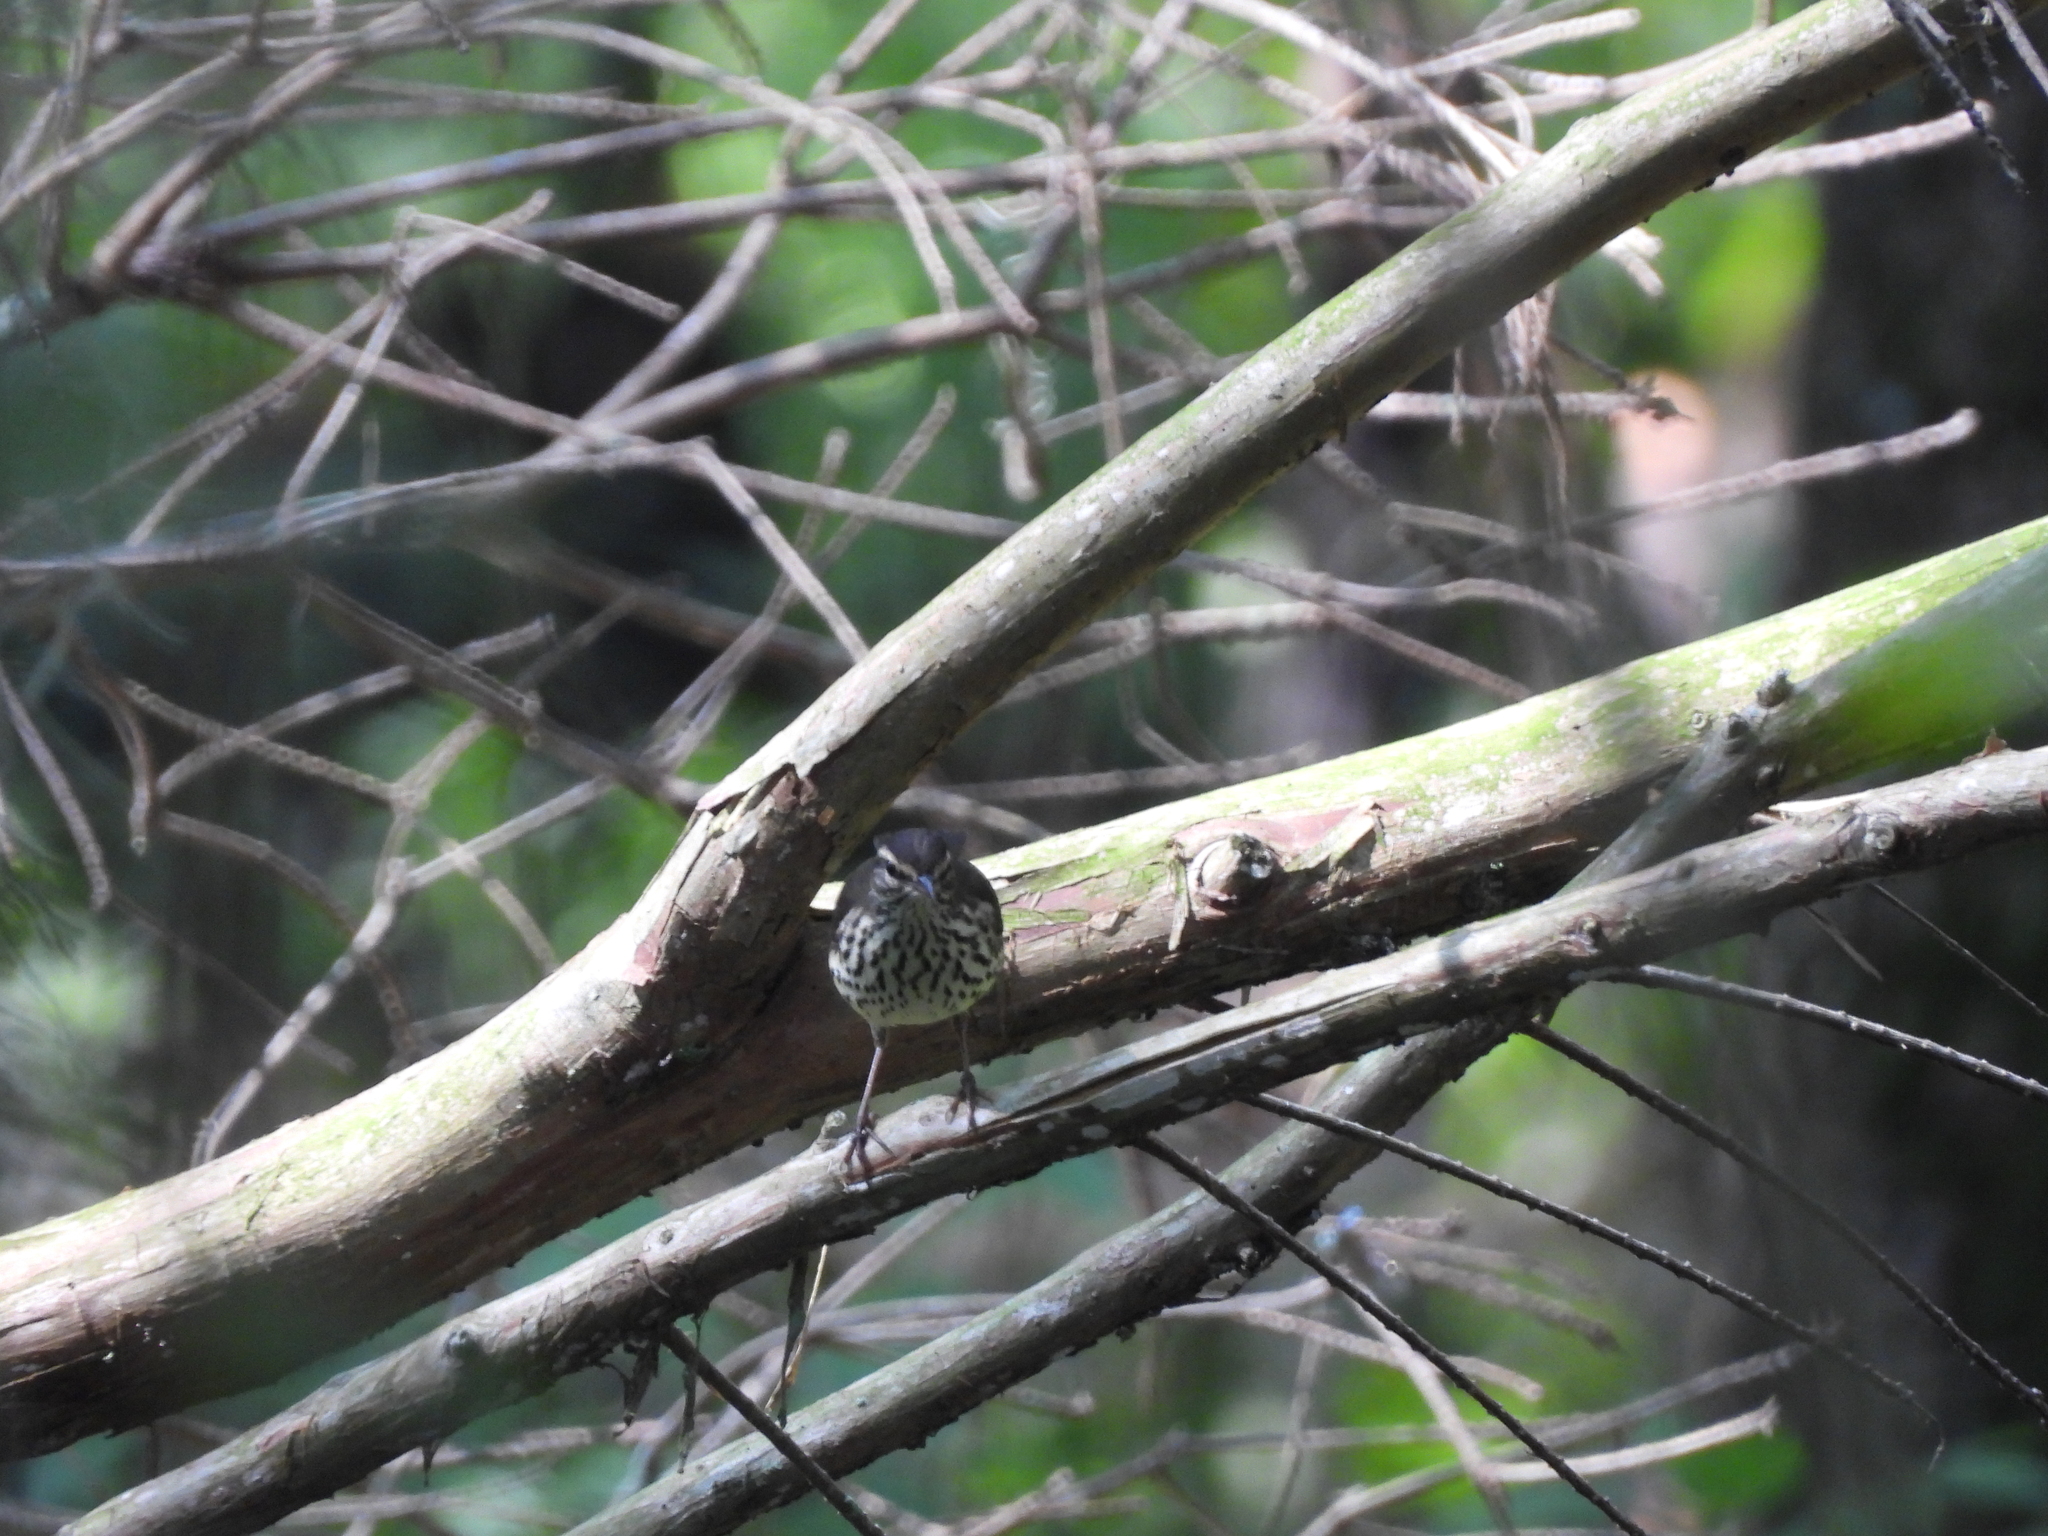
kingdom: Animalia
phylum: Chordata
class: Aves
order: Passeriformes
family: Parulidae
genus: Parkesia
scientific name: Parkesia noveboracensis
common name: Northern waterthrush
